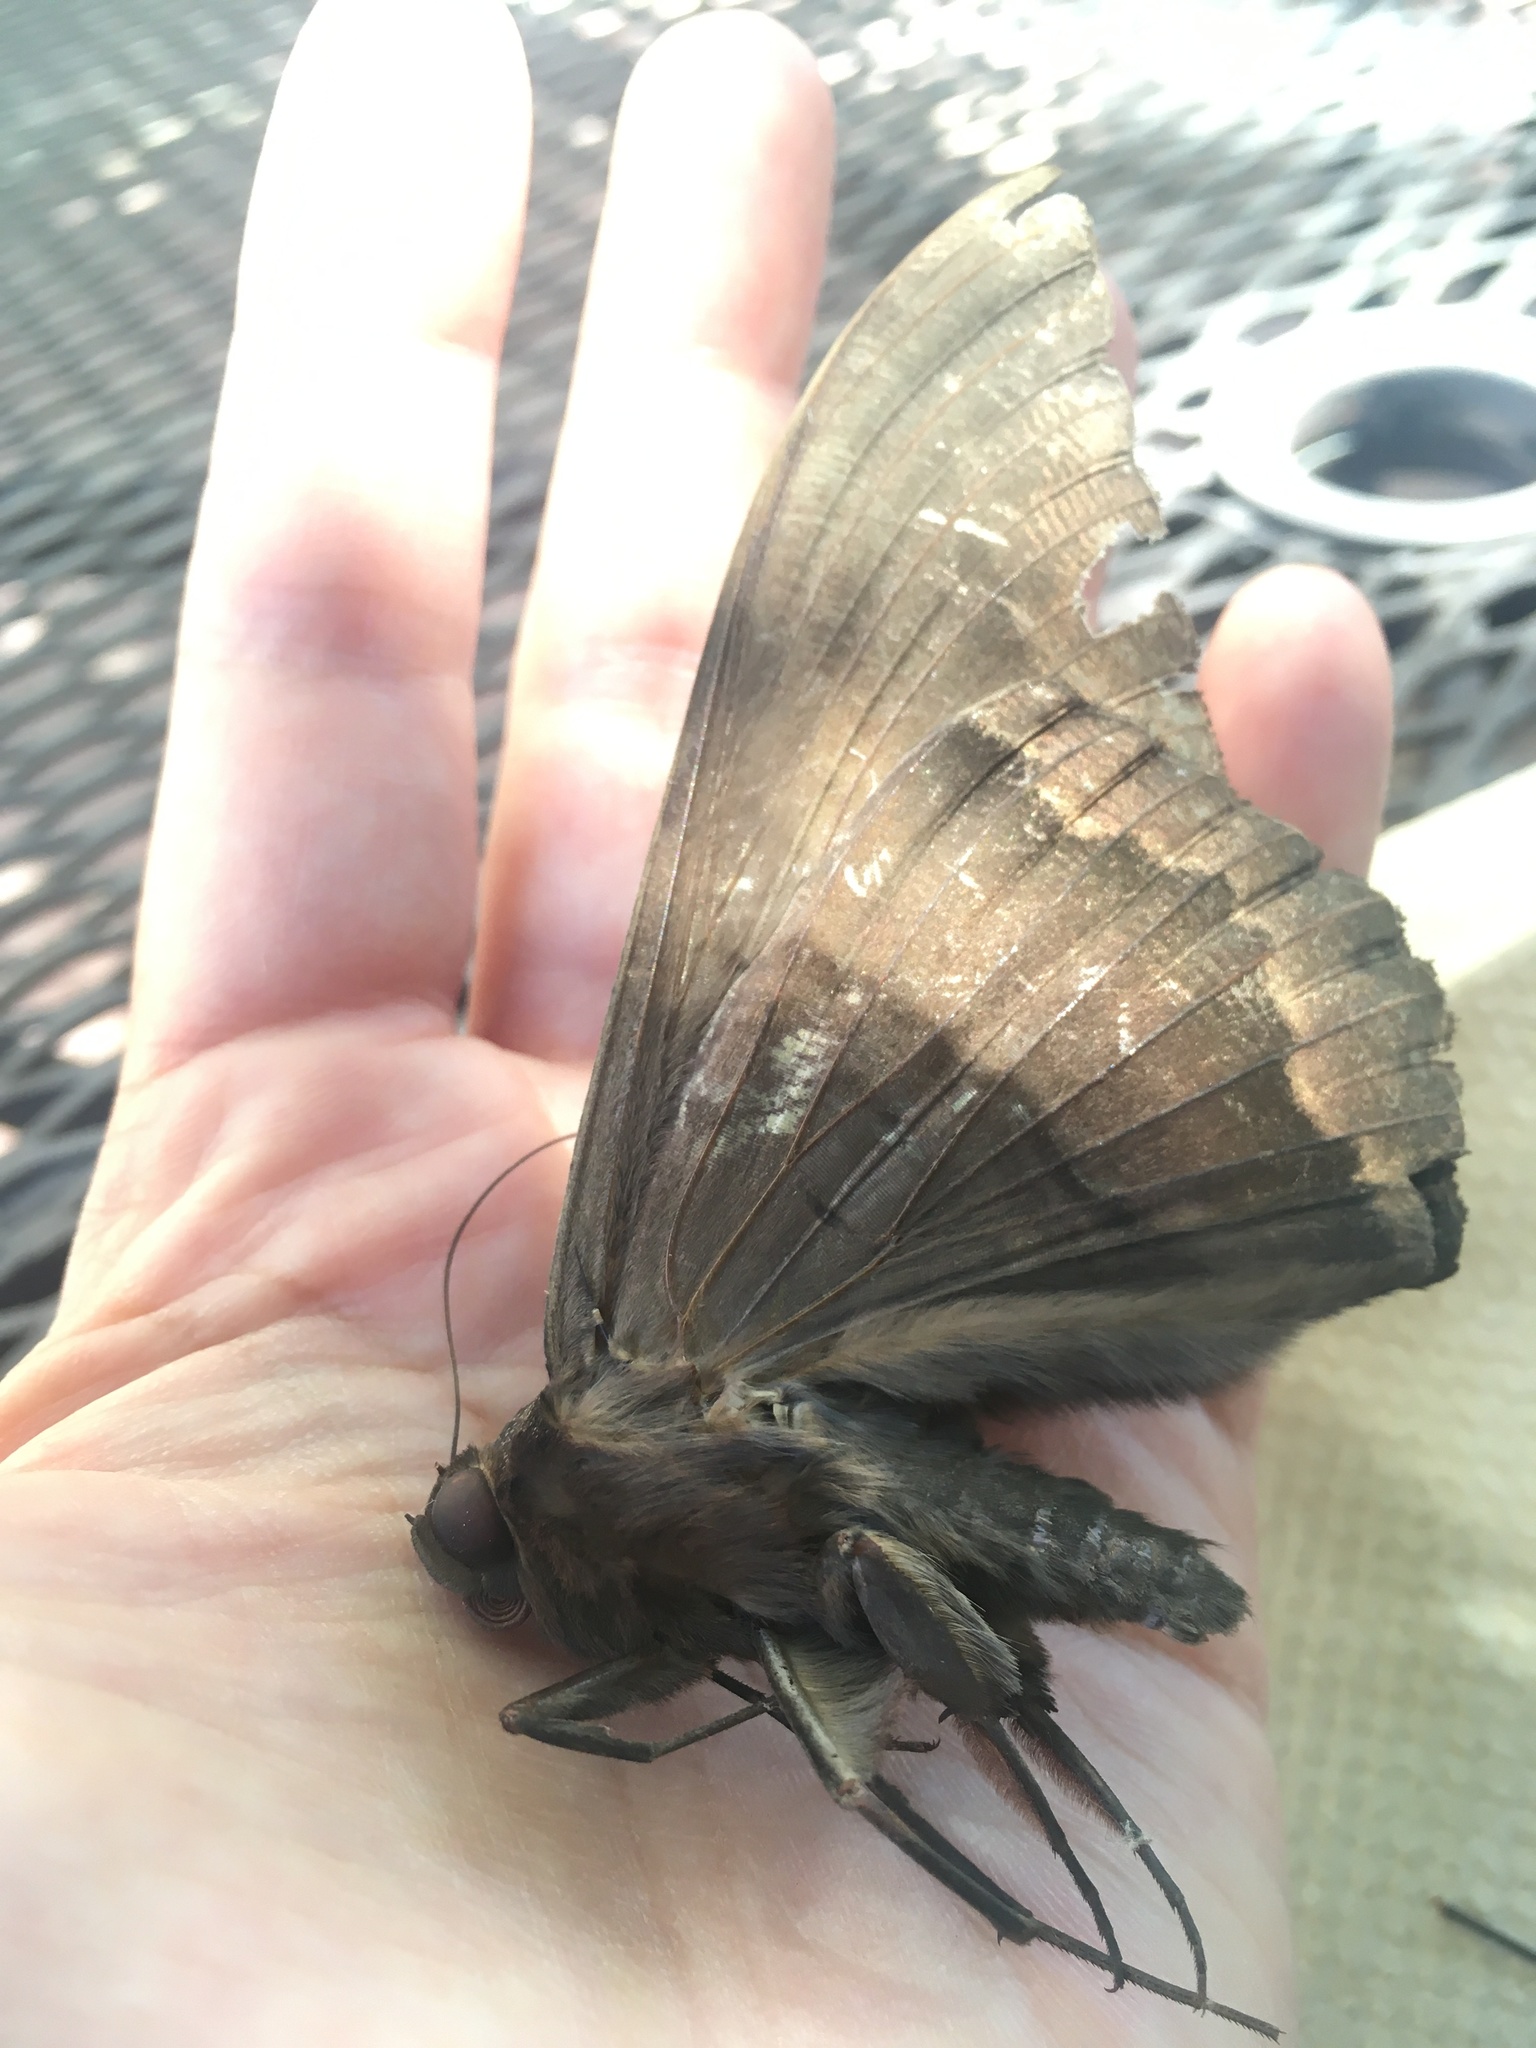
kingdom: Animalia
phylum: Arthropoda
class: Insecta
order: Lepidoptera
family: Erebidae
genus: Ascalapha
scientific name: Ascalapha odorata
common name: Black witch
